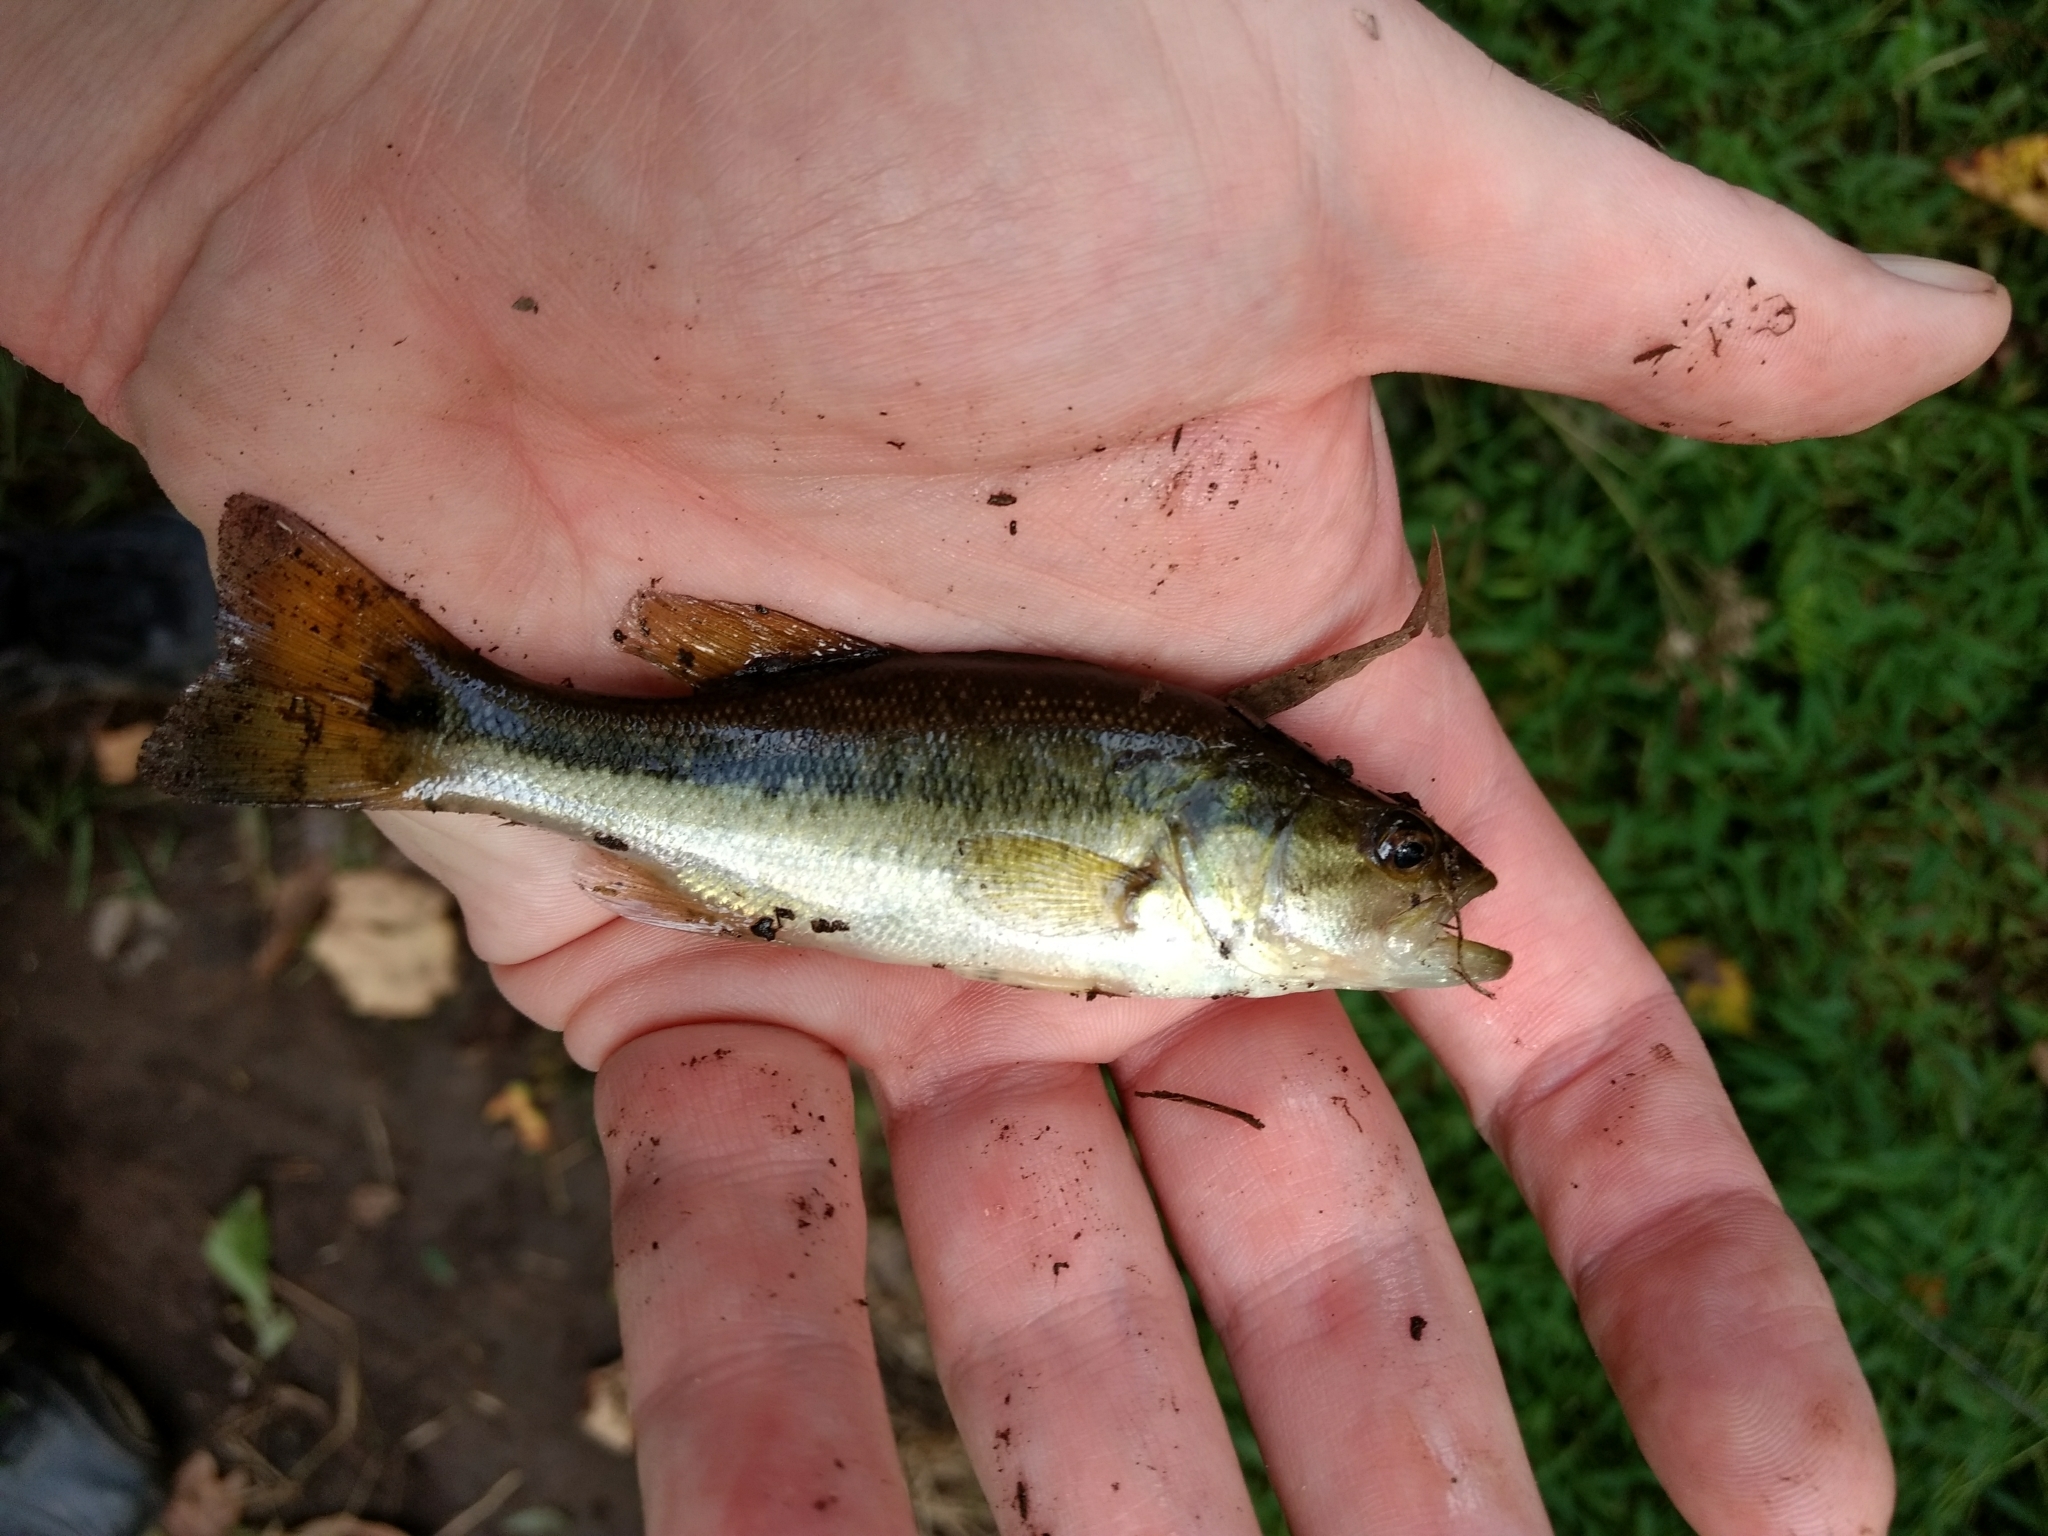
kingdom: Animalia
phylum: Chordata
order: Perciformes
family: Centrarchidae
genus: Micropterus
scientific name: Micropterus
